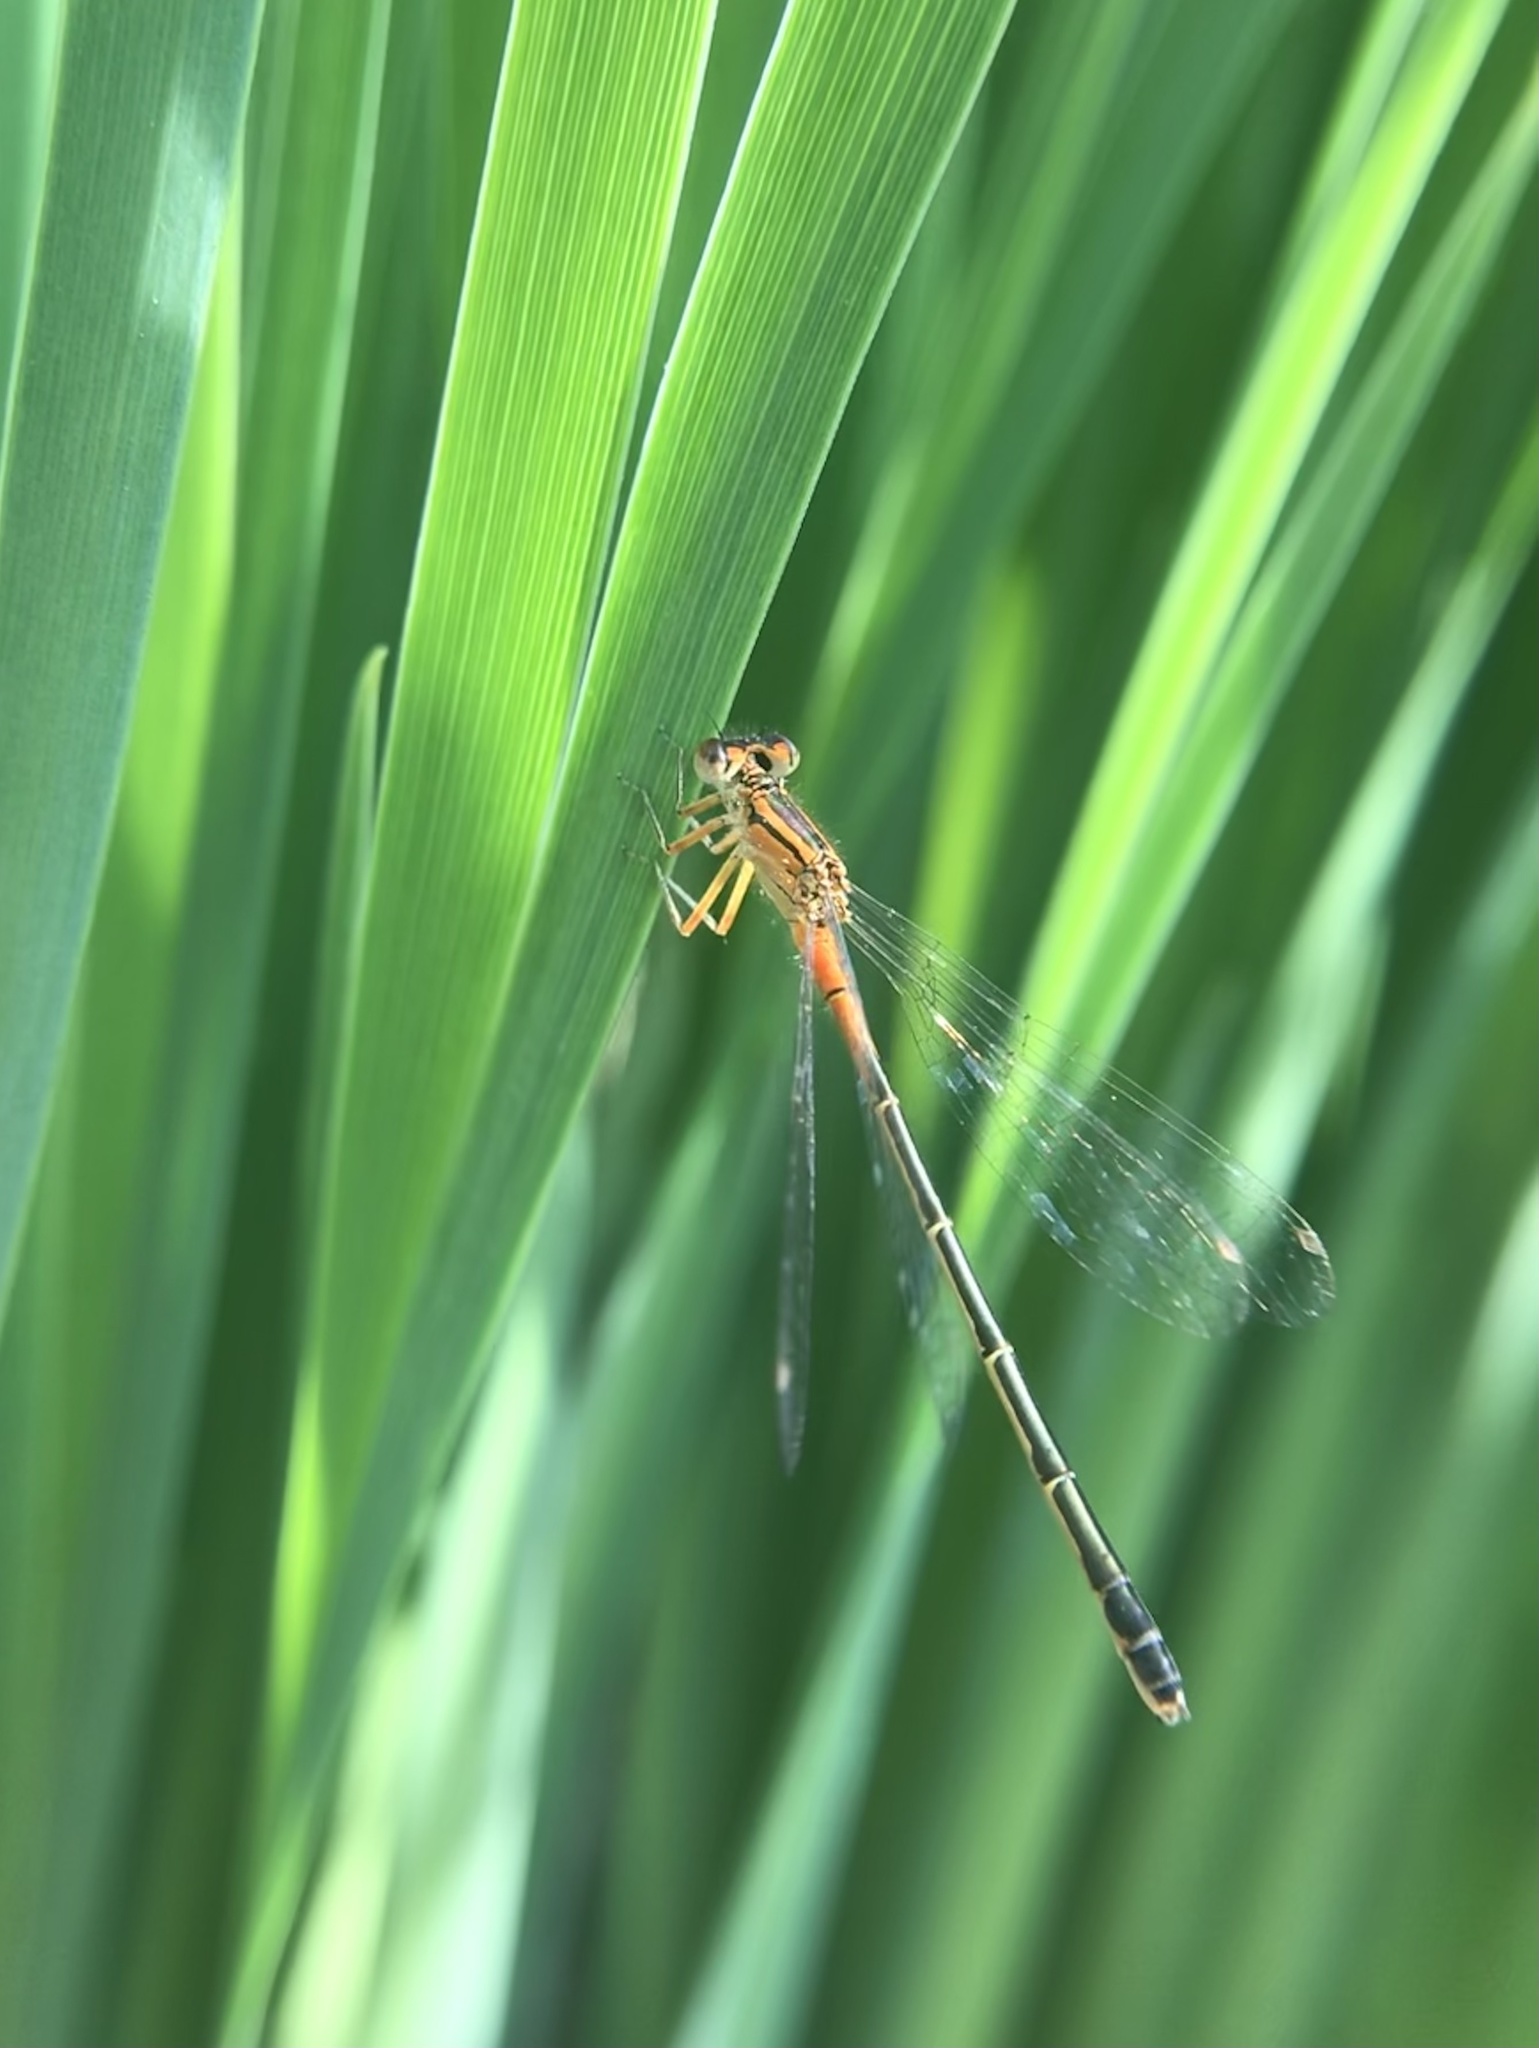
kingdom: Animalia
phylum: Arthropoda
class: Insecta
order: Odonata
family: Coenagrionidae
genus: Ischnura
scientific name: Ischnura verticalis
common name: Eastern forktail
